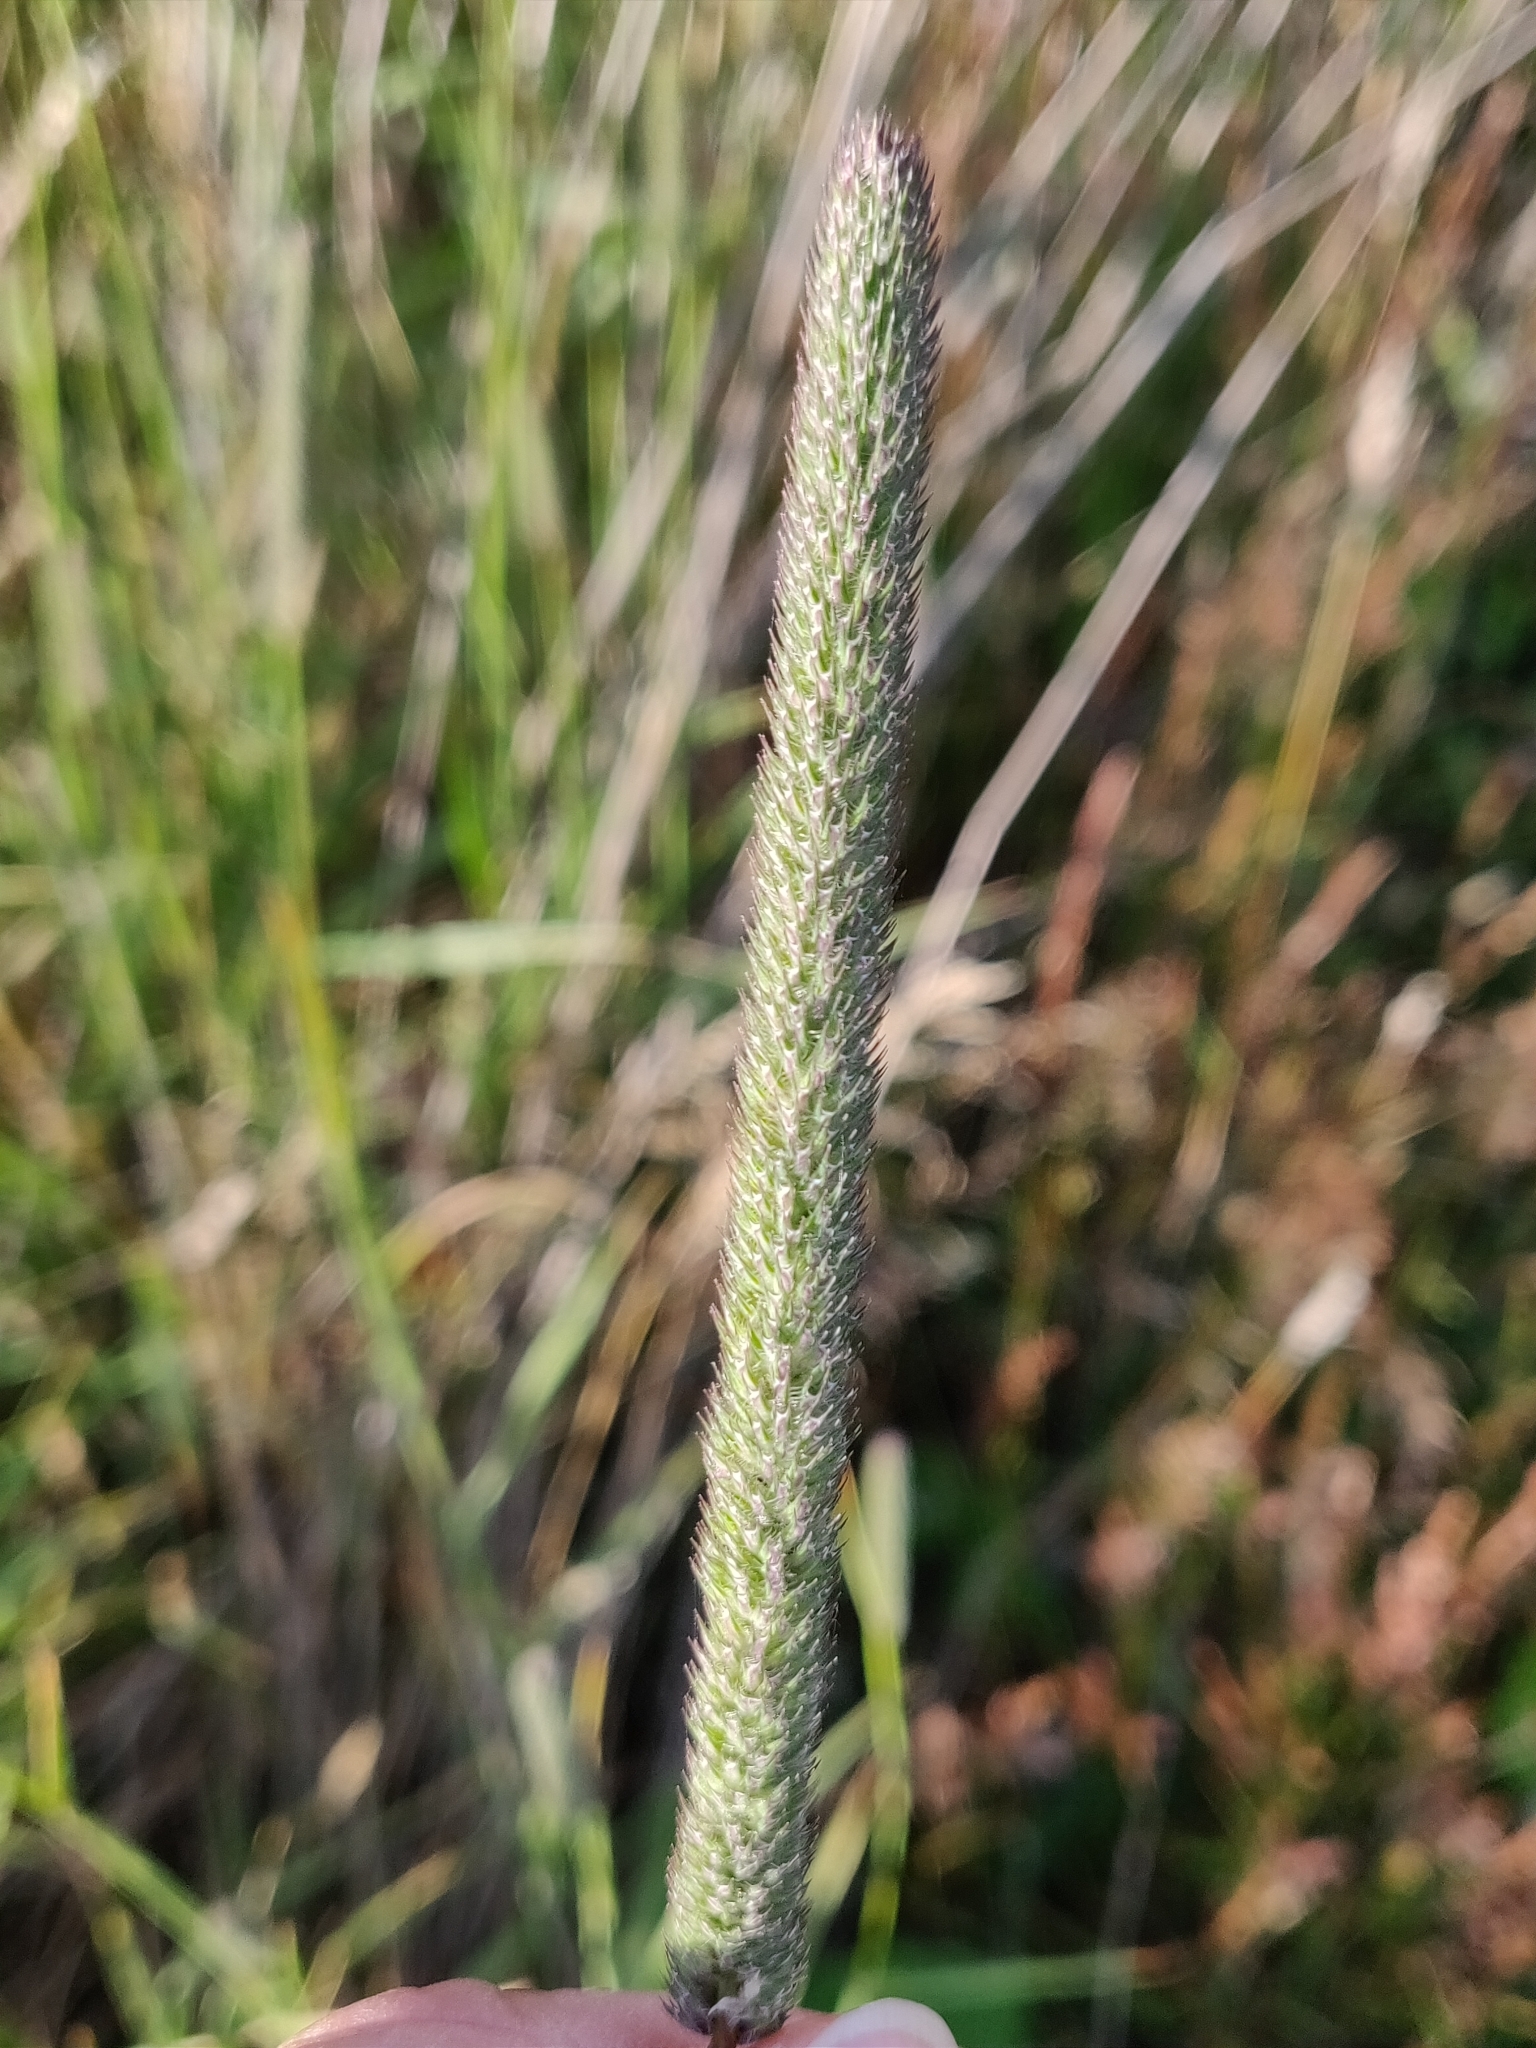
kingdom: Plantae
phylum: Tracheophyta
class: Liliopsida
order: Poales
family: Poaceae
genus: Phleum
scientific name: Phleum pratense
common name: Timothy grass
